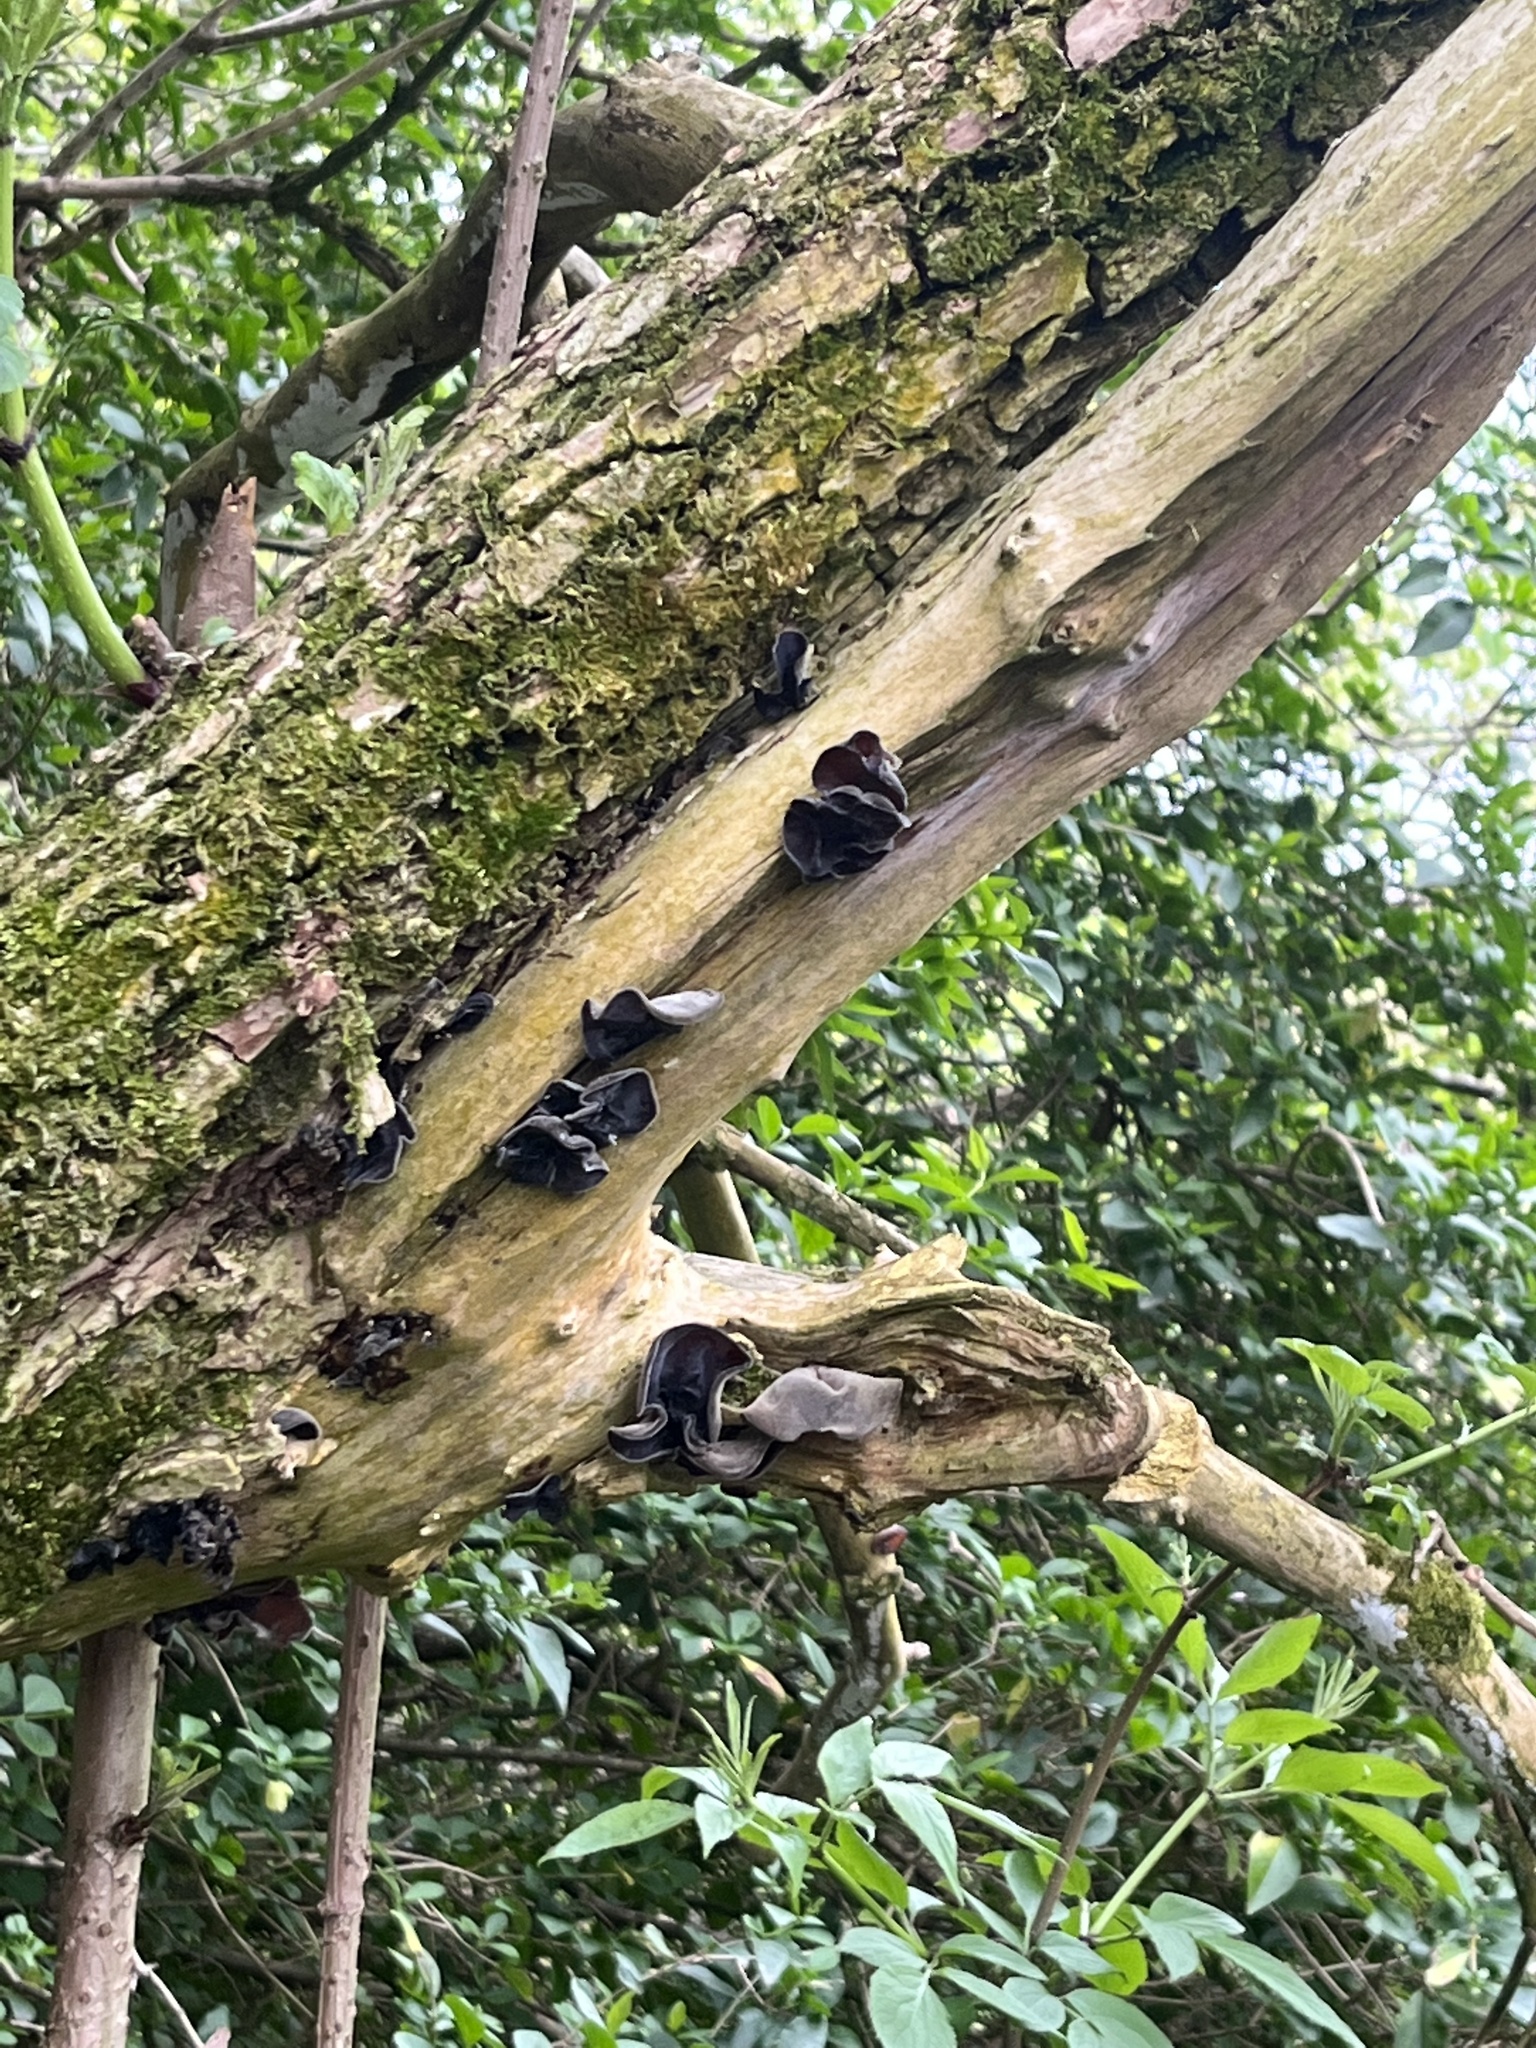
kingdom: Fungi
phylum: Basidiomycota
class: Agaricomycetes
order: Auriculariales
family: Auriculariaceae
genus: Auricularia
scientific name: Auricularia auricula-judae
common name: Jelly ear
